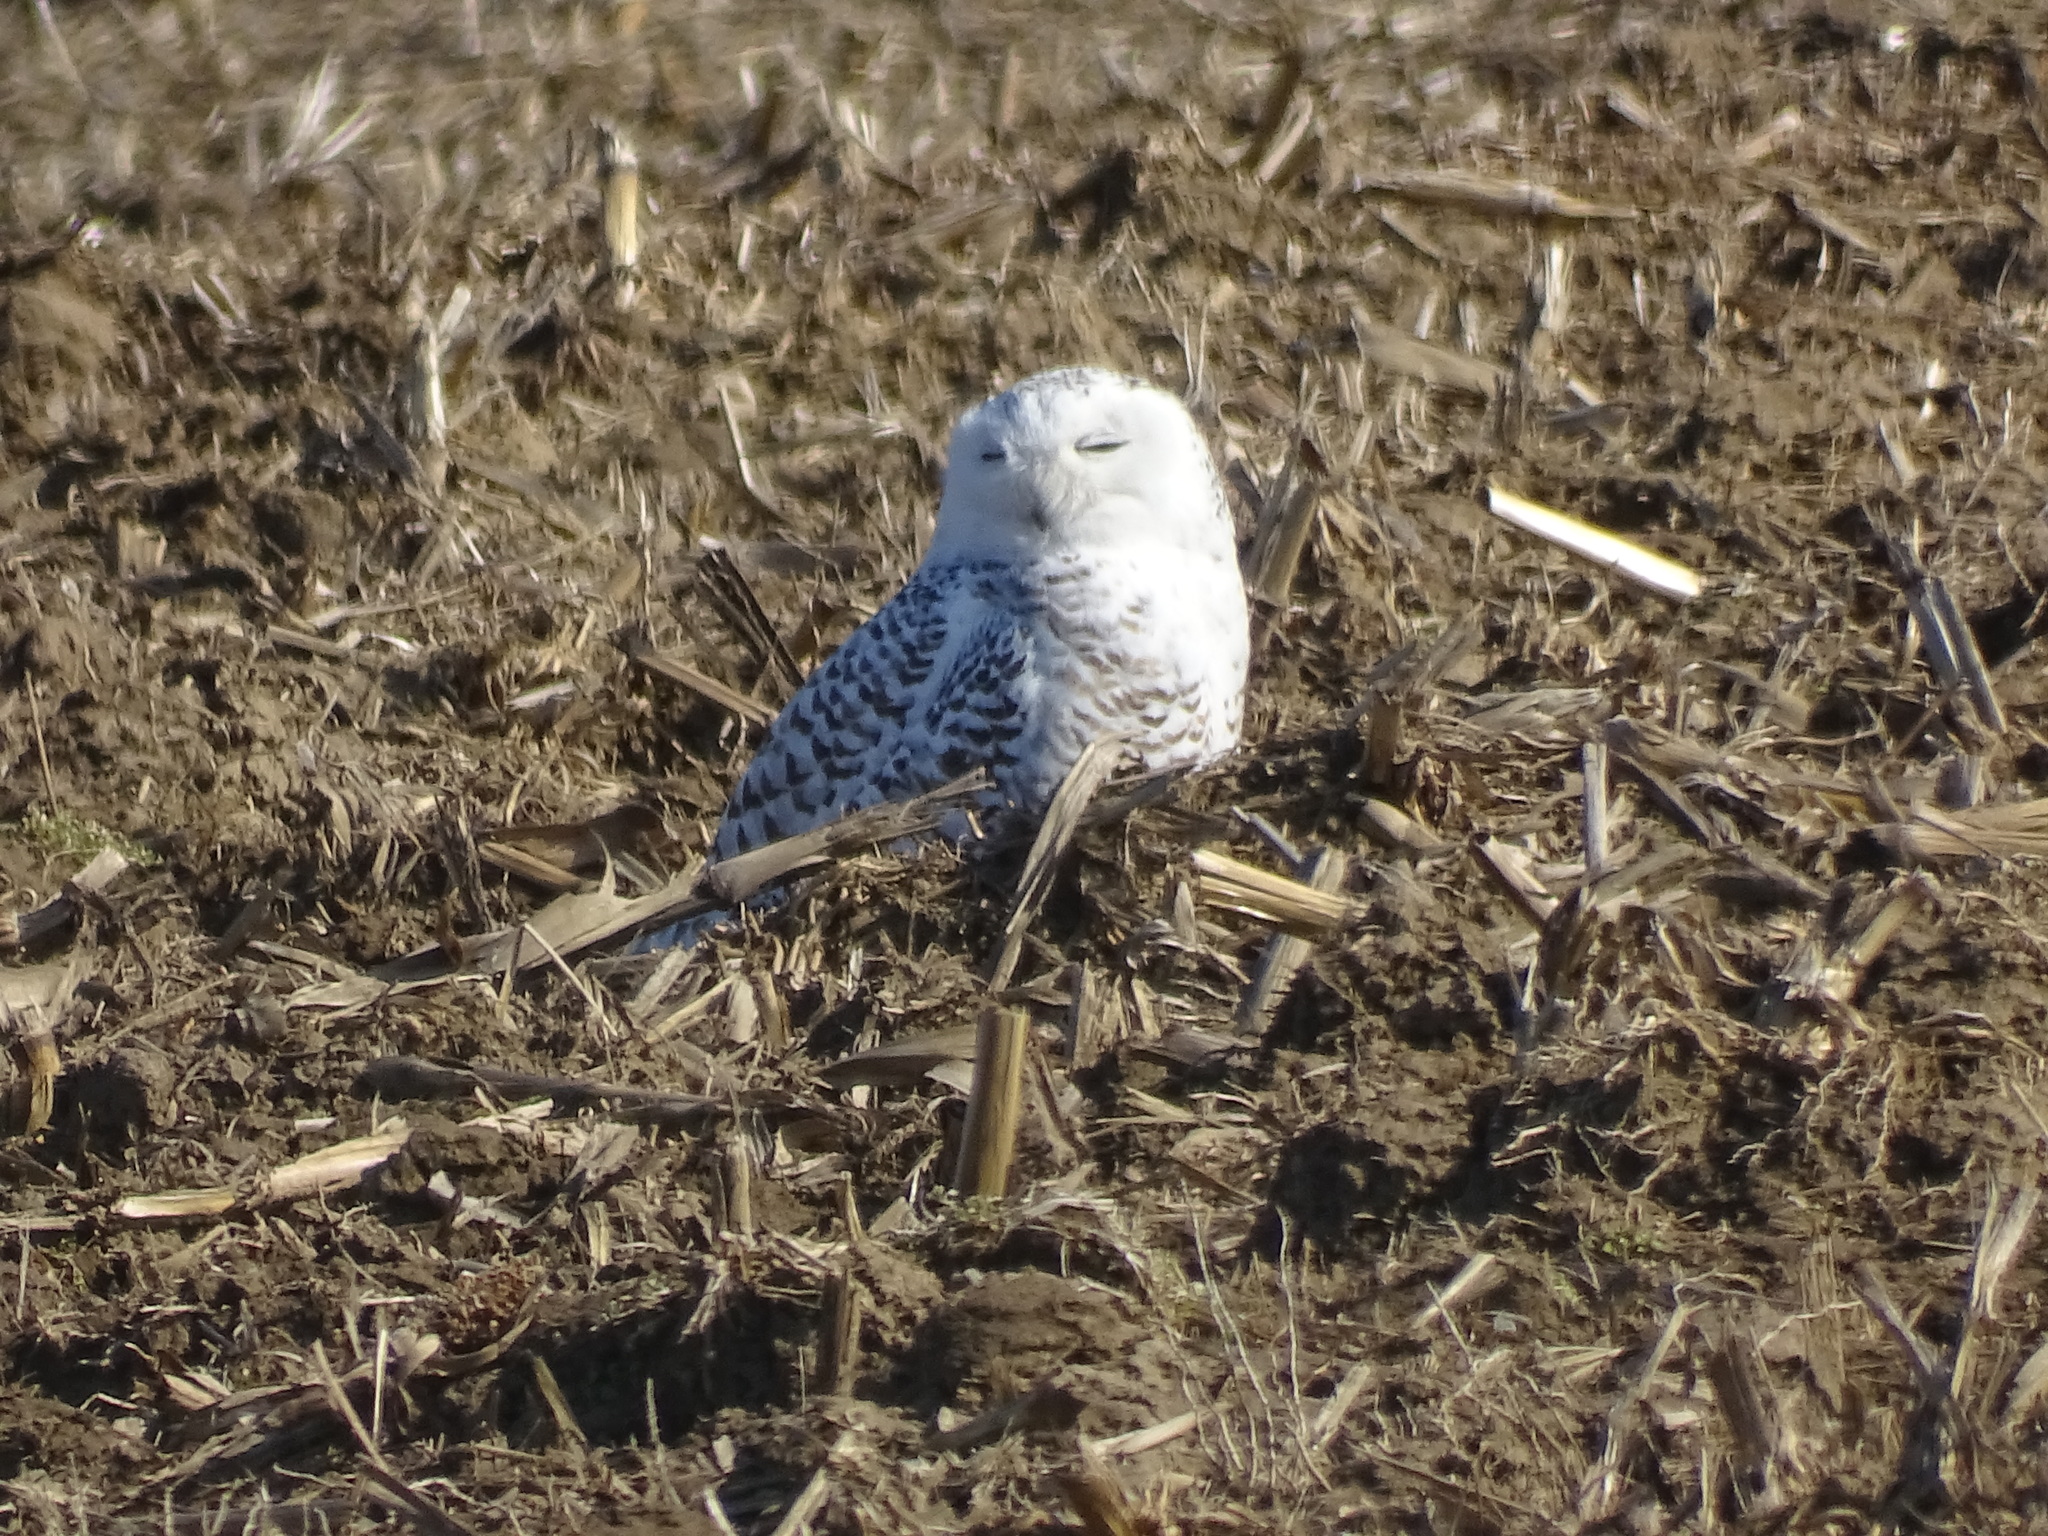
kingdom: Animalia
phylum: Chordata
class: Aves
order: Strigiformes
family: Strigidae
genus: Bubo
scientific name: Bubo scandiacus
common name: Snowy owl
